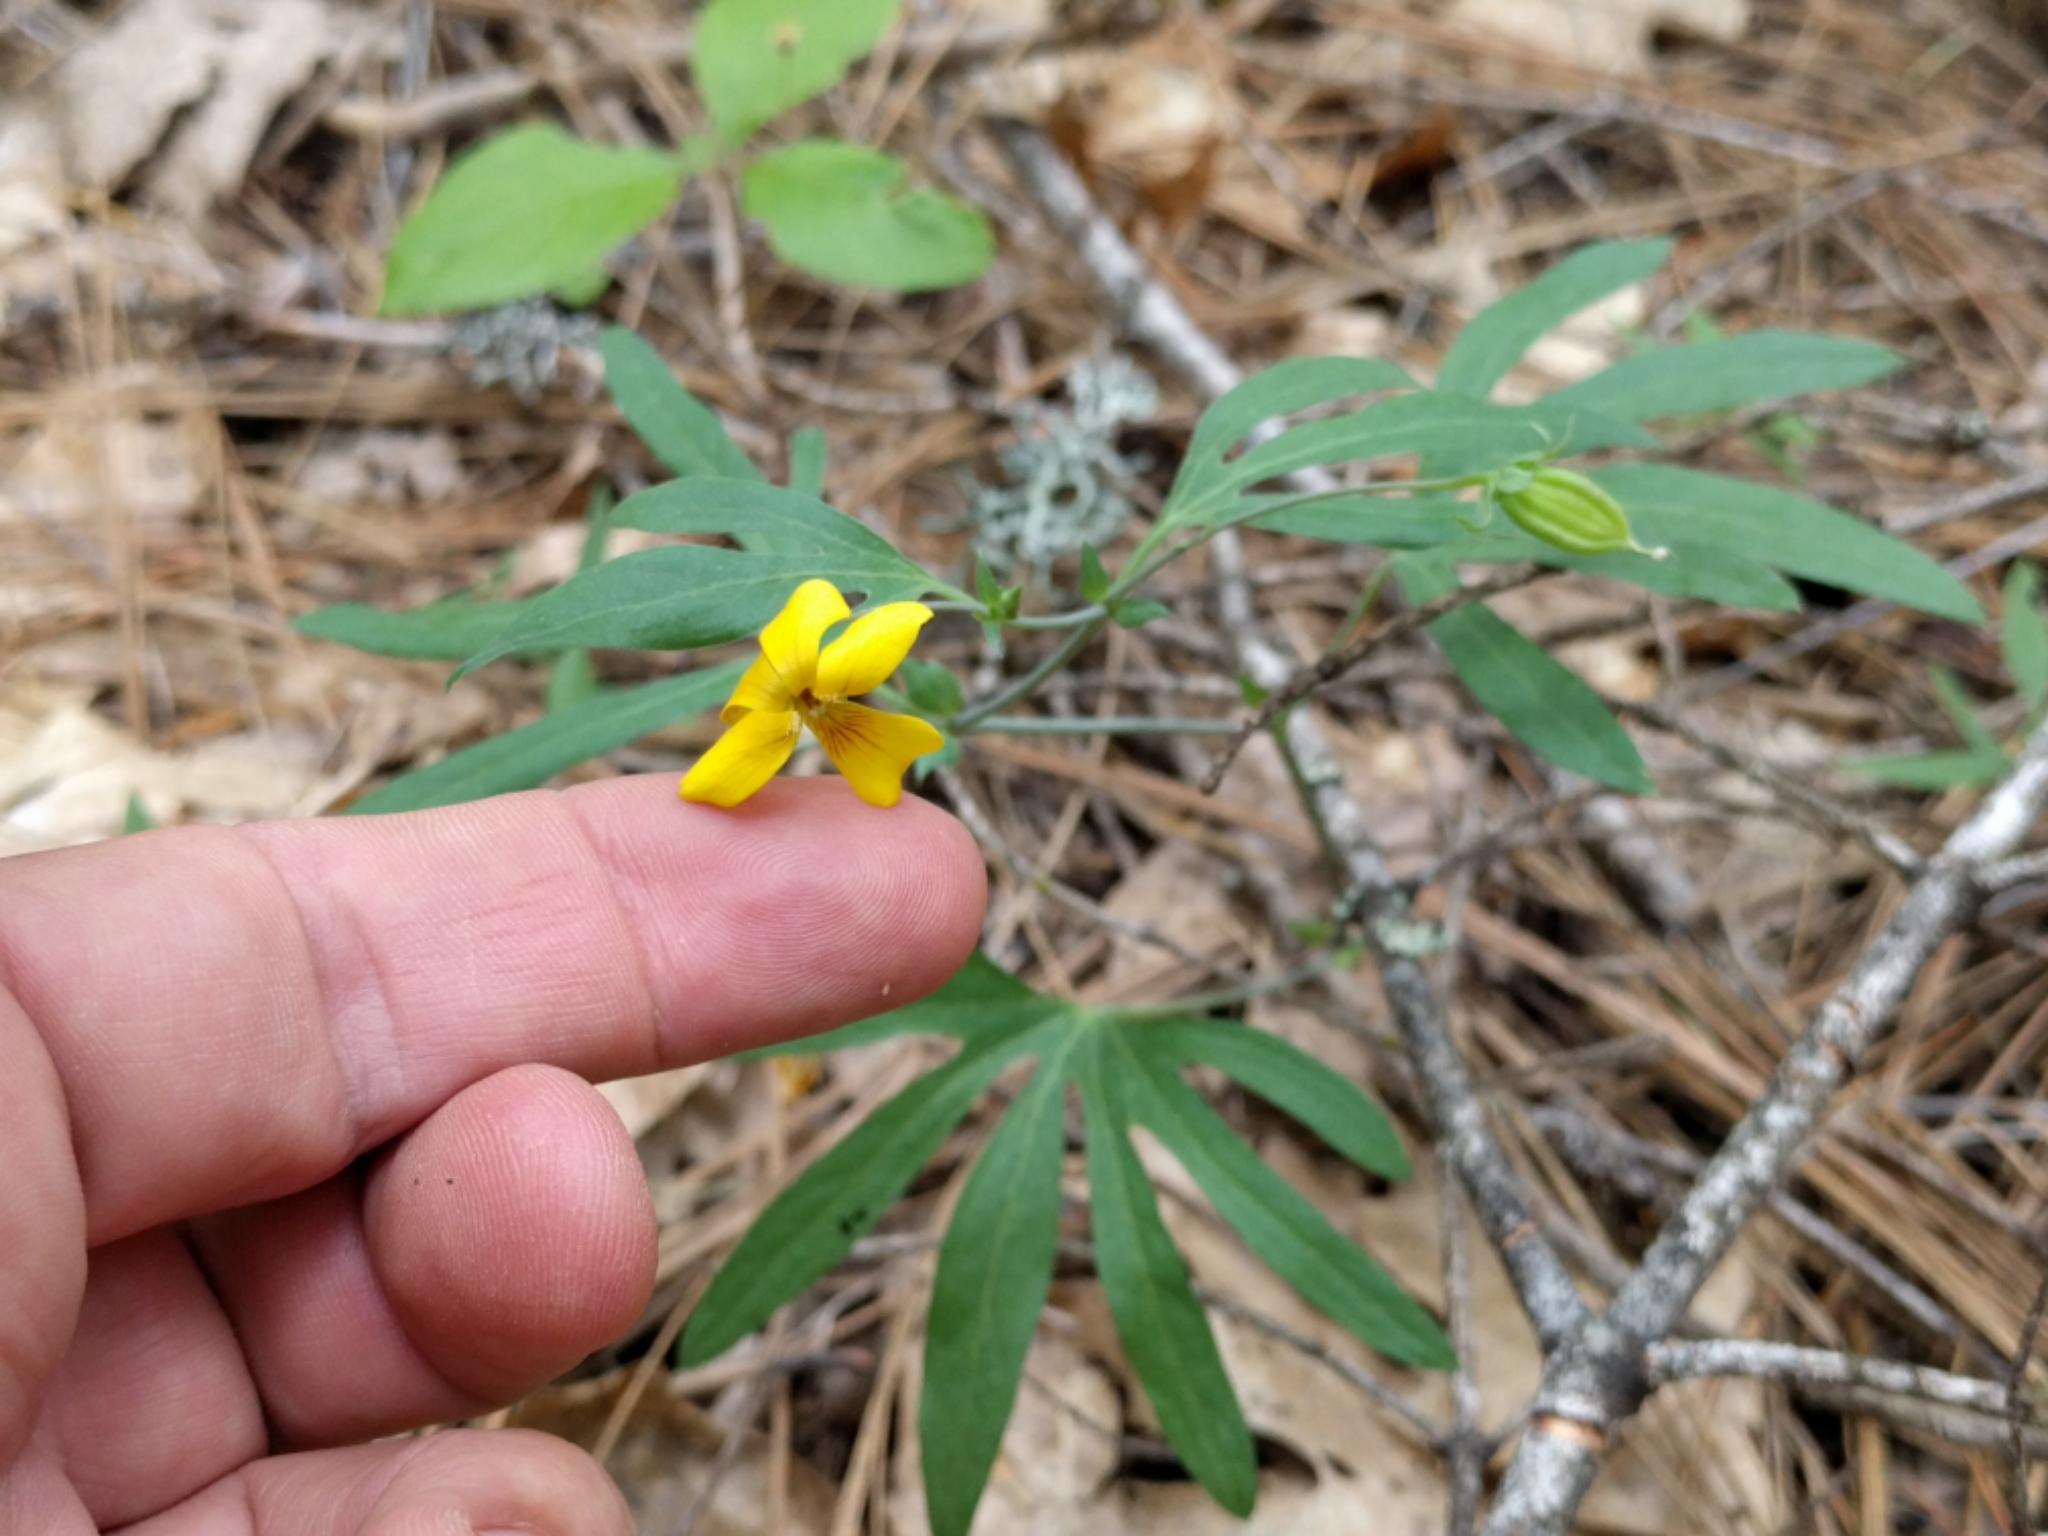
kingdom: Plantae
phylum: Tracheophyta
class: Magnoliopsida
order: Malpighiales
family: Violaceae
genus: Viola
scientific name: Viola lobata
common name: Pine violet
